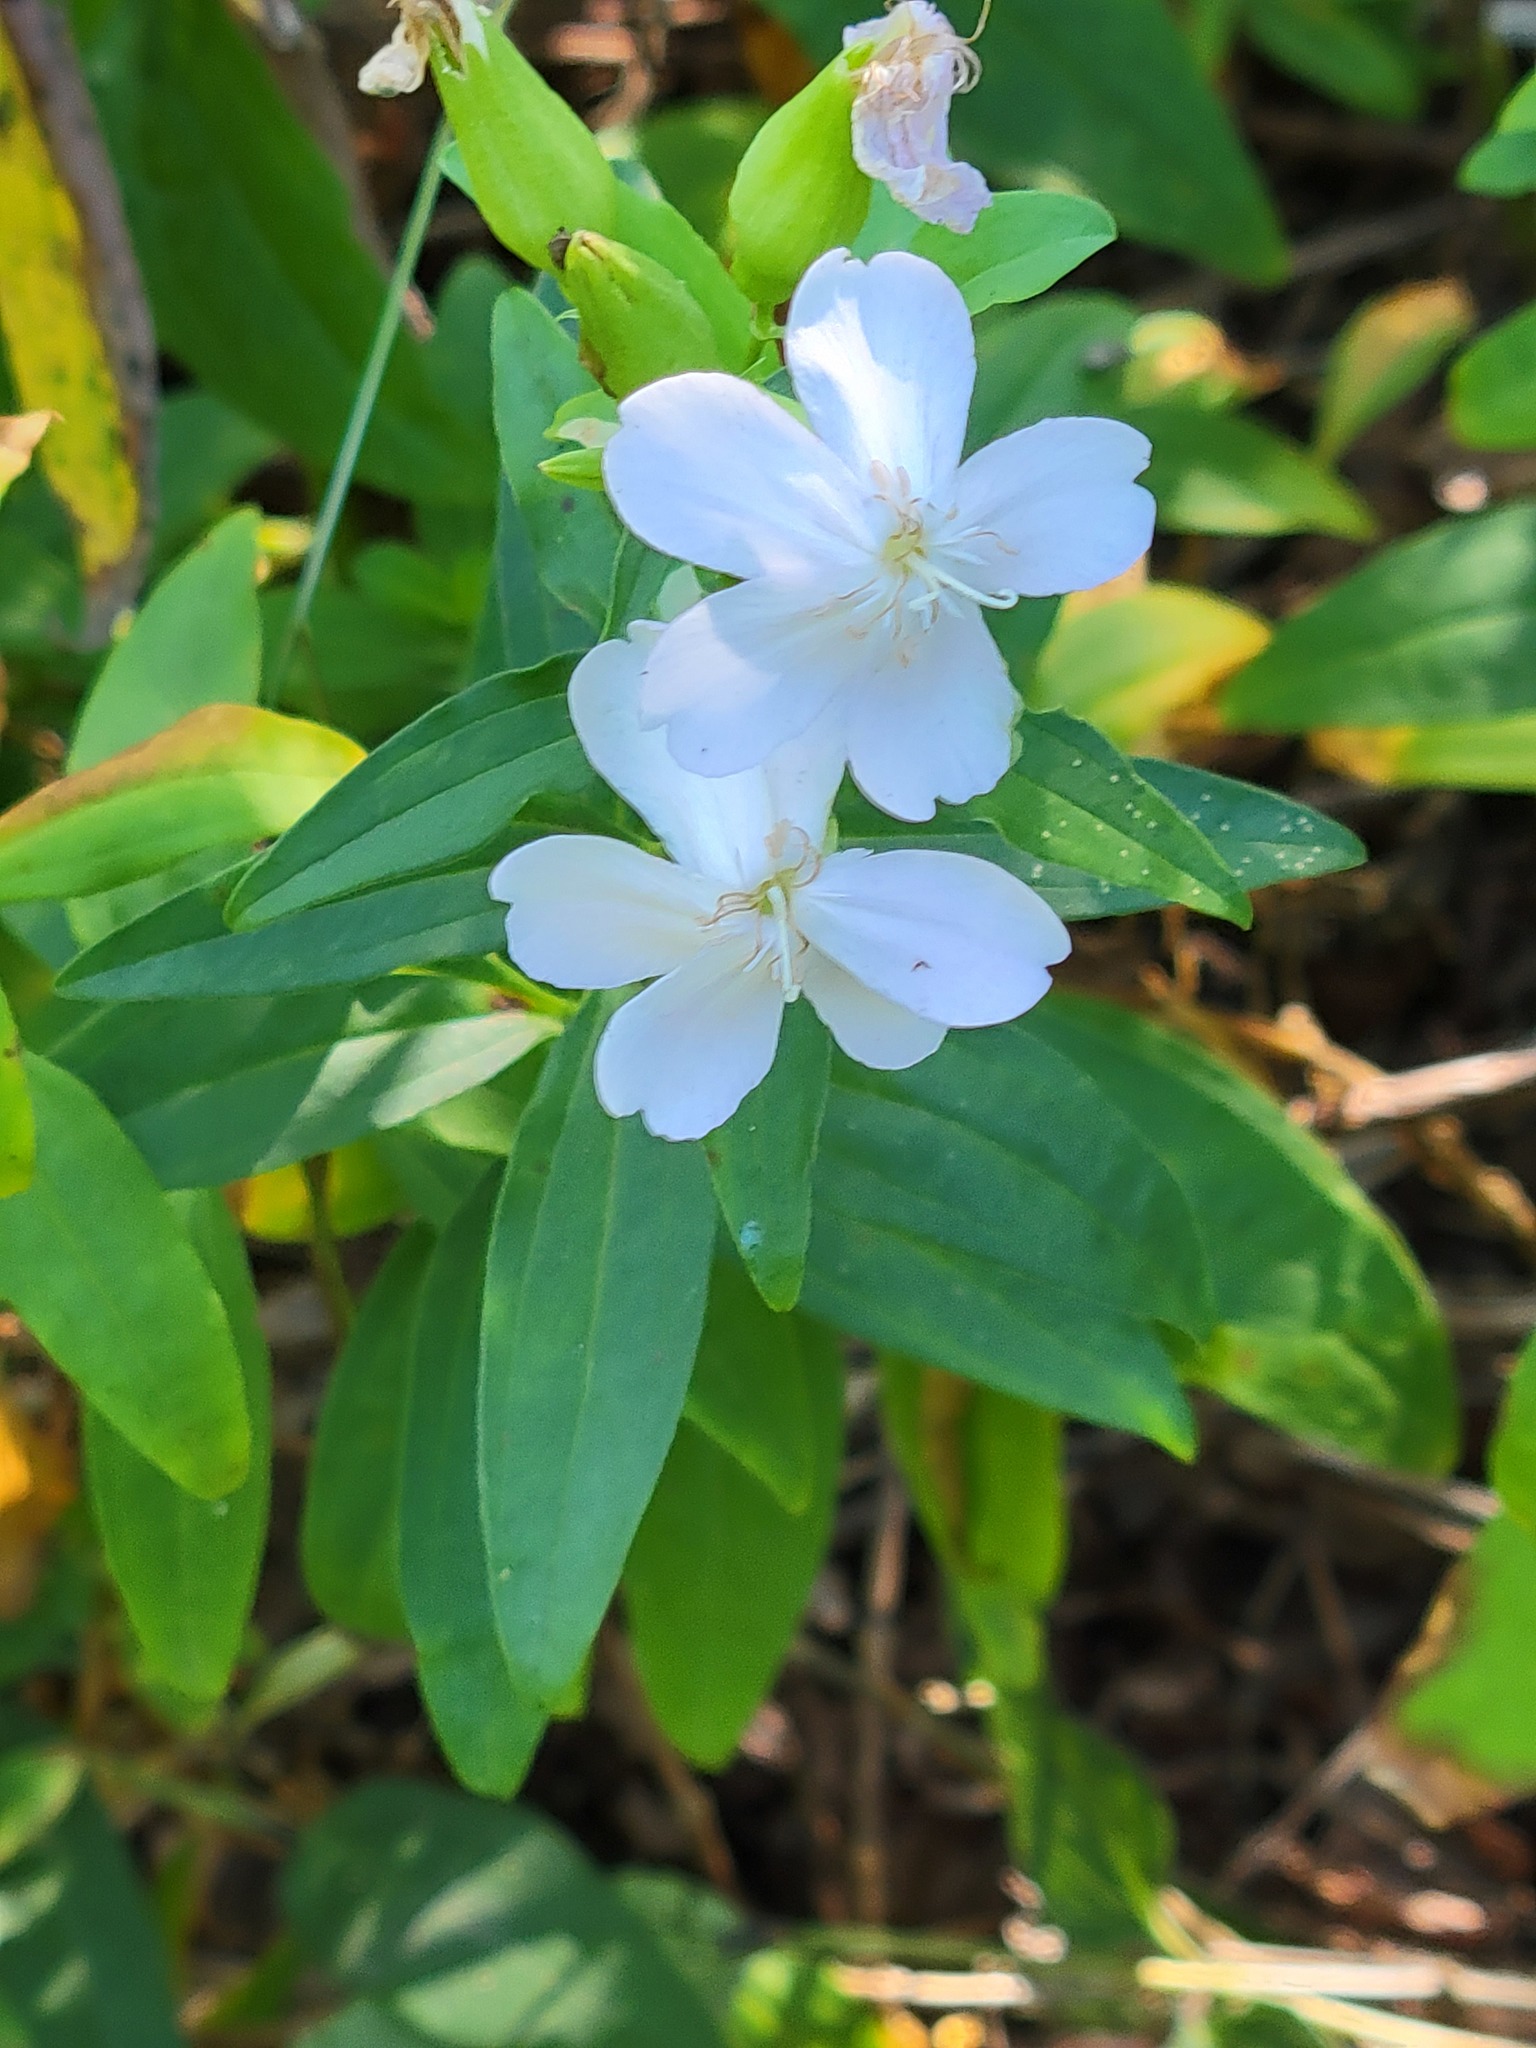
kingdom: Plantae
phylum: Tracheophyta
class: Magnoliopsida
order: Caryophyllales
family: Caryophyllaceae
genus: Saponaria
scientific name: Saponaria officinalis
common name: Soapwort
